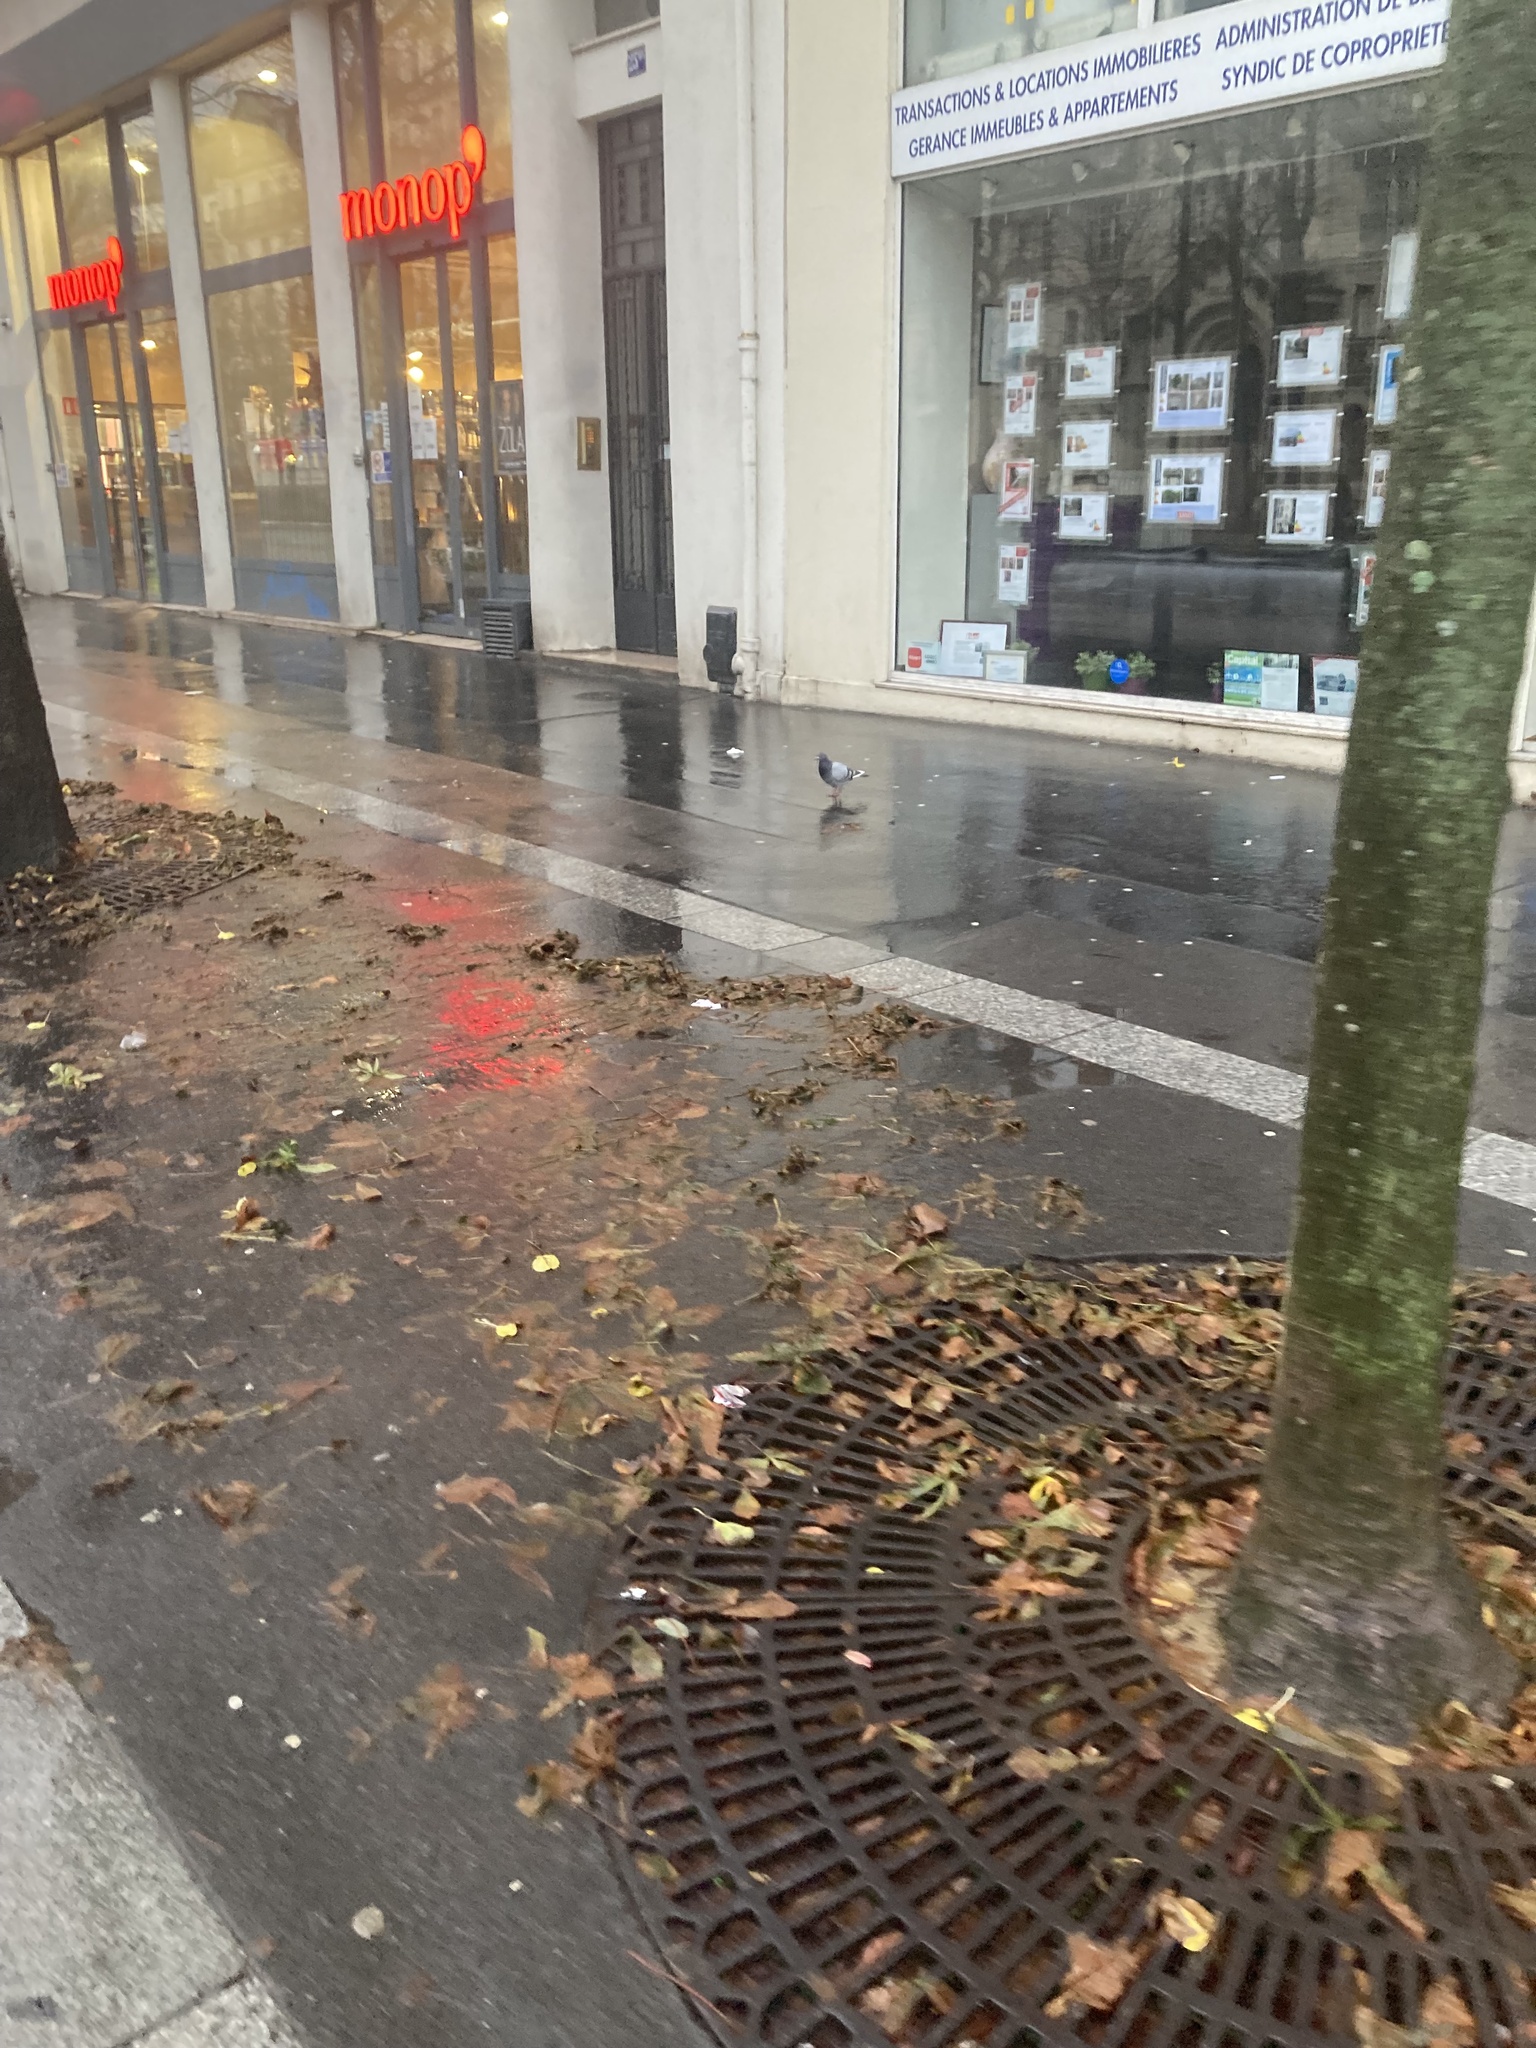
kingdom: Animalia
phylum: Chordata
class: Aves
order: Columbiformes
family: Columbidae
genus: Columba
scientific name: Columba livia
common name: Rock pigeon
